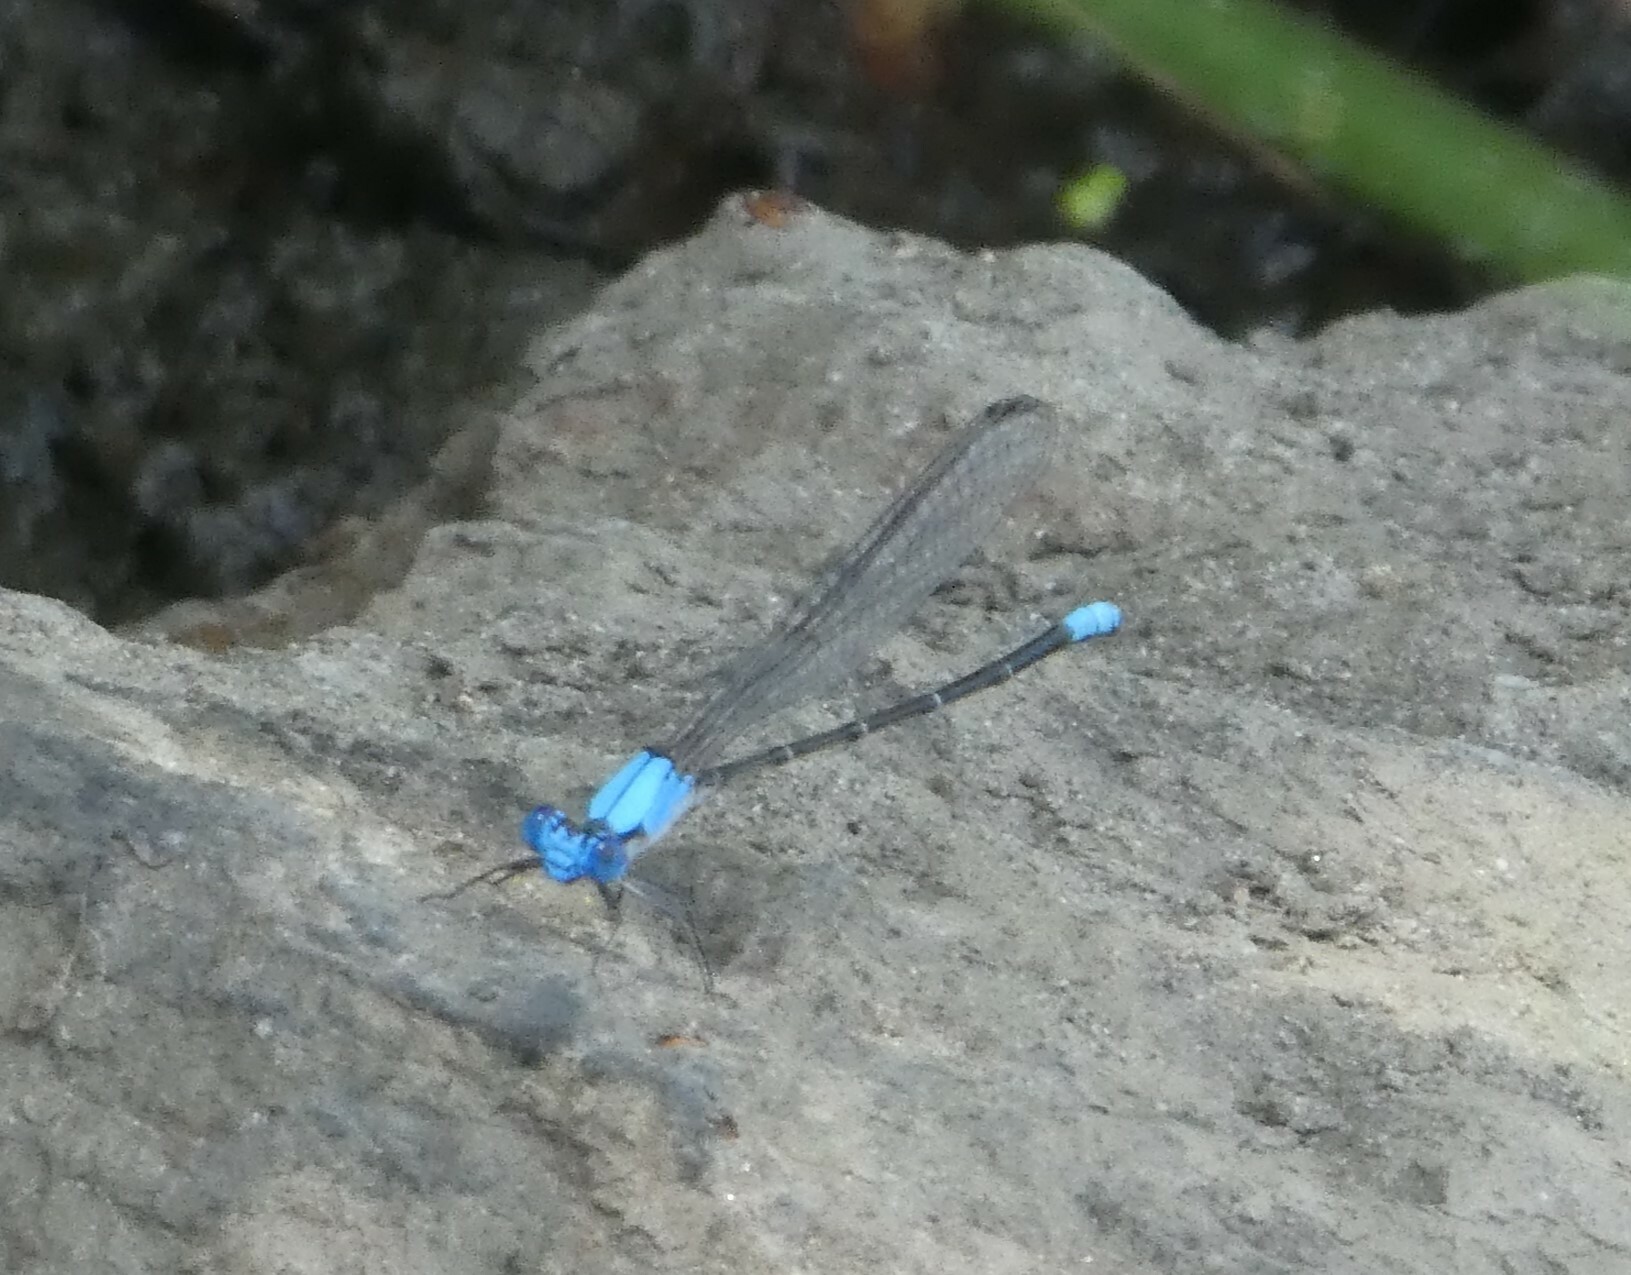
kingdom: Animalia
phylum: Arthropoda
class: Insecta
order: Odonata
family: Coenagrionidae
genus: Argia
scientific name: Argia apicalis
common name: Blue-fronted dancer
